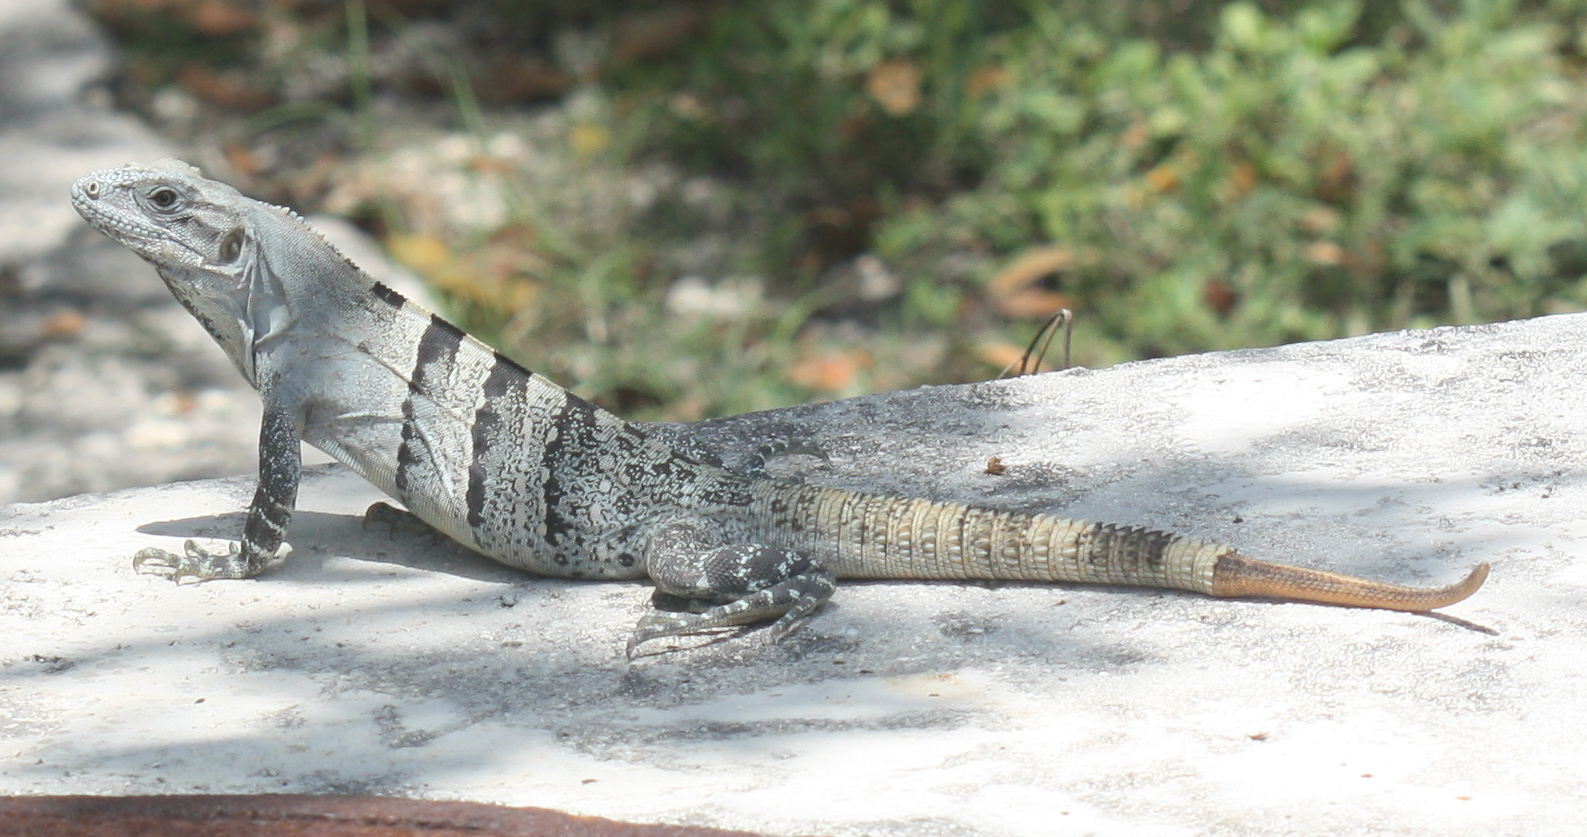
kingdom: Animalia
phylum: Chordata
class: Squamata
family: Iguanidae
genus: Ctenosaura
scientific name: Ctenosaura similis
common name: Black spiny-tailed iguana
